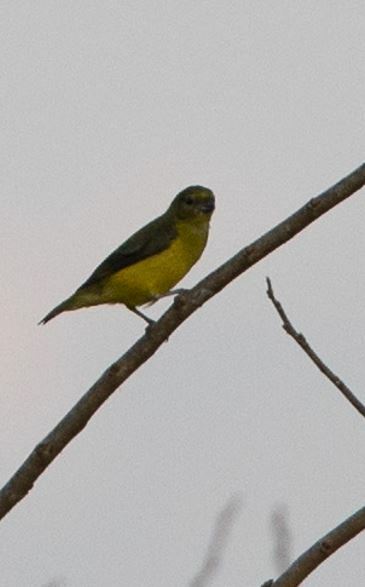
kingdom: Animalia
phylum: Chordata
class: Aves
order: Passeriformes
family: Fringillidae
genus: Euphonia
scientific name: Euphonia chlorotica
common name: Purple-throated euphonia
